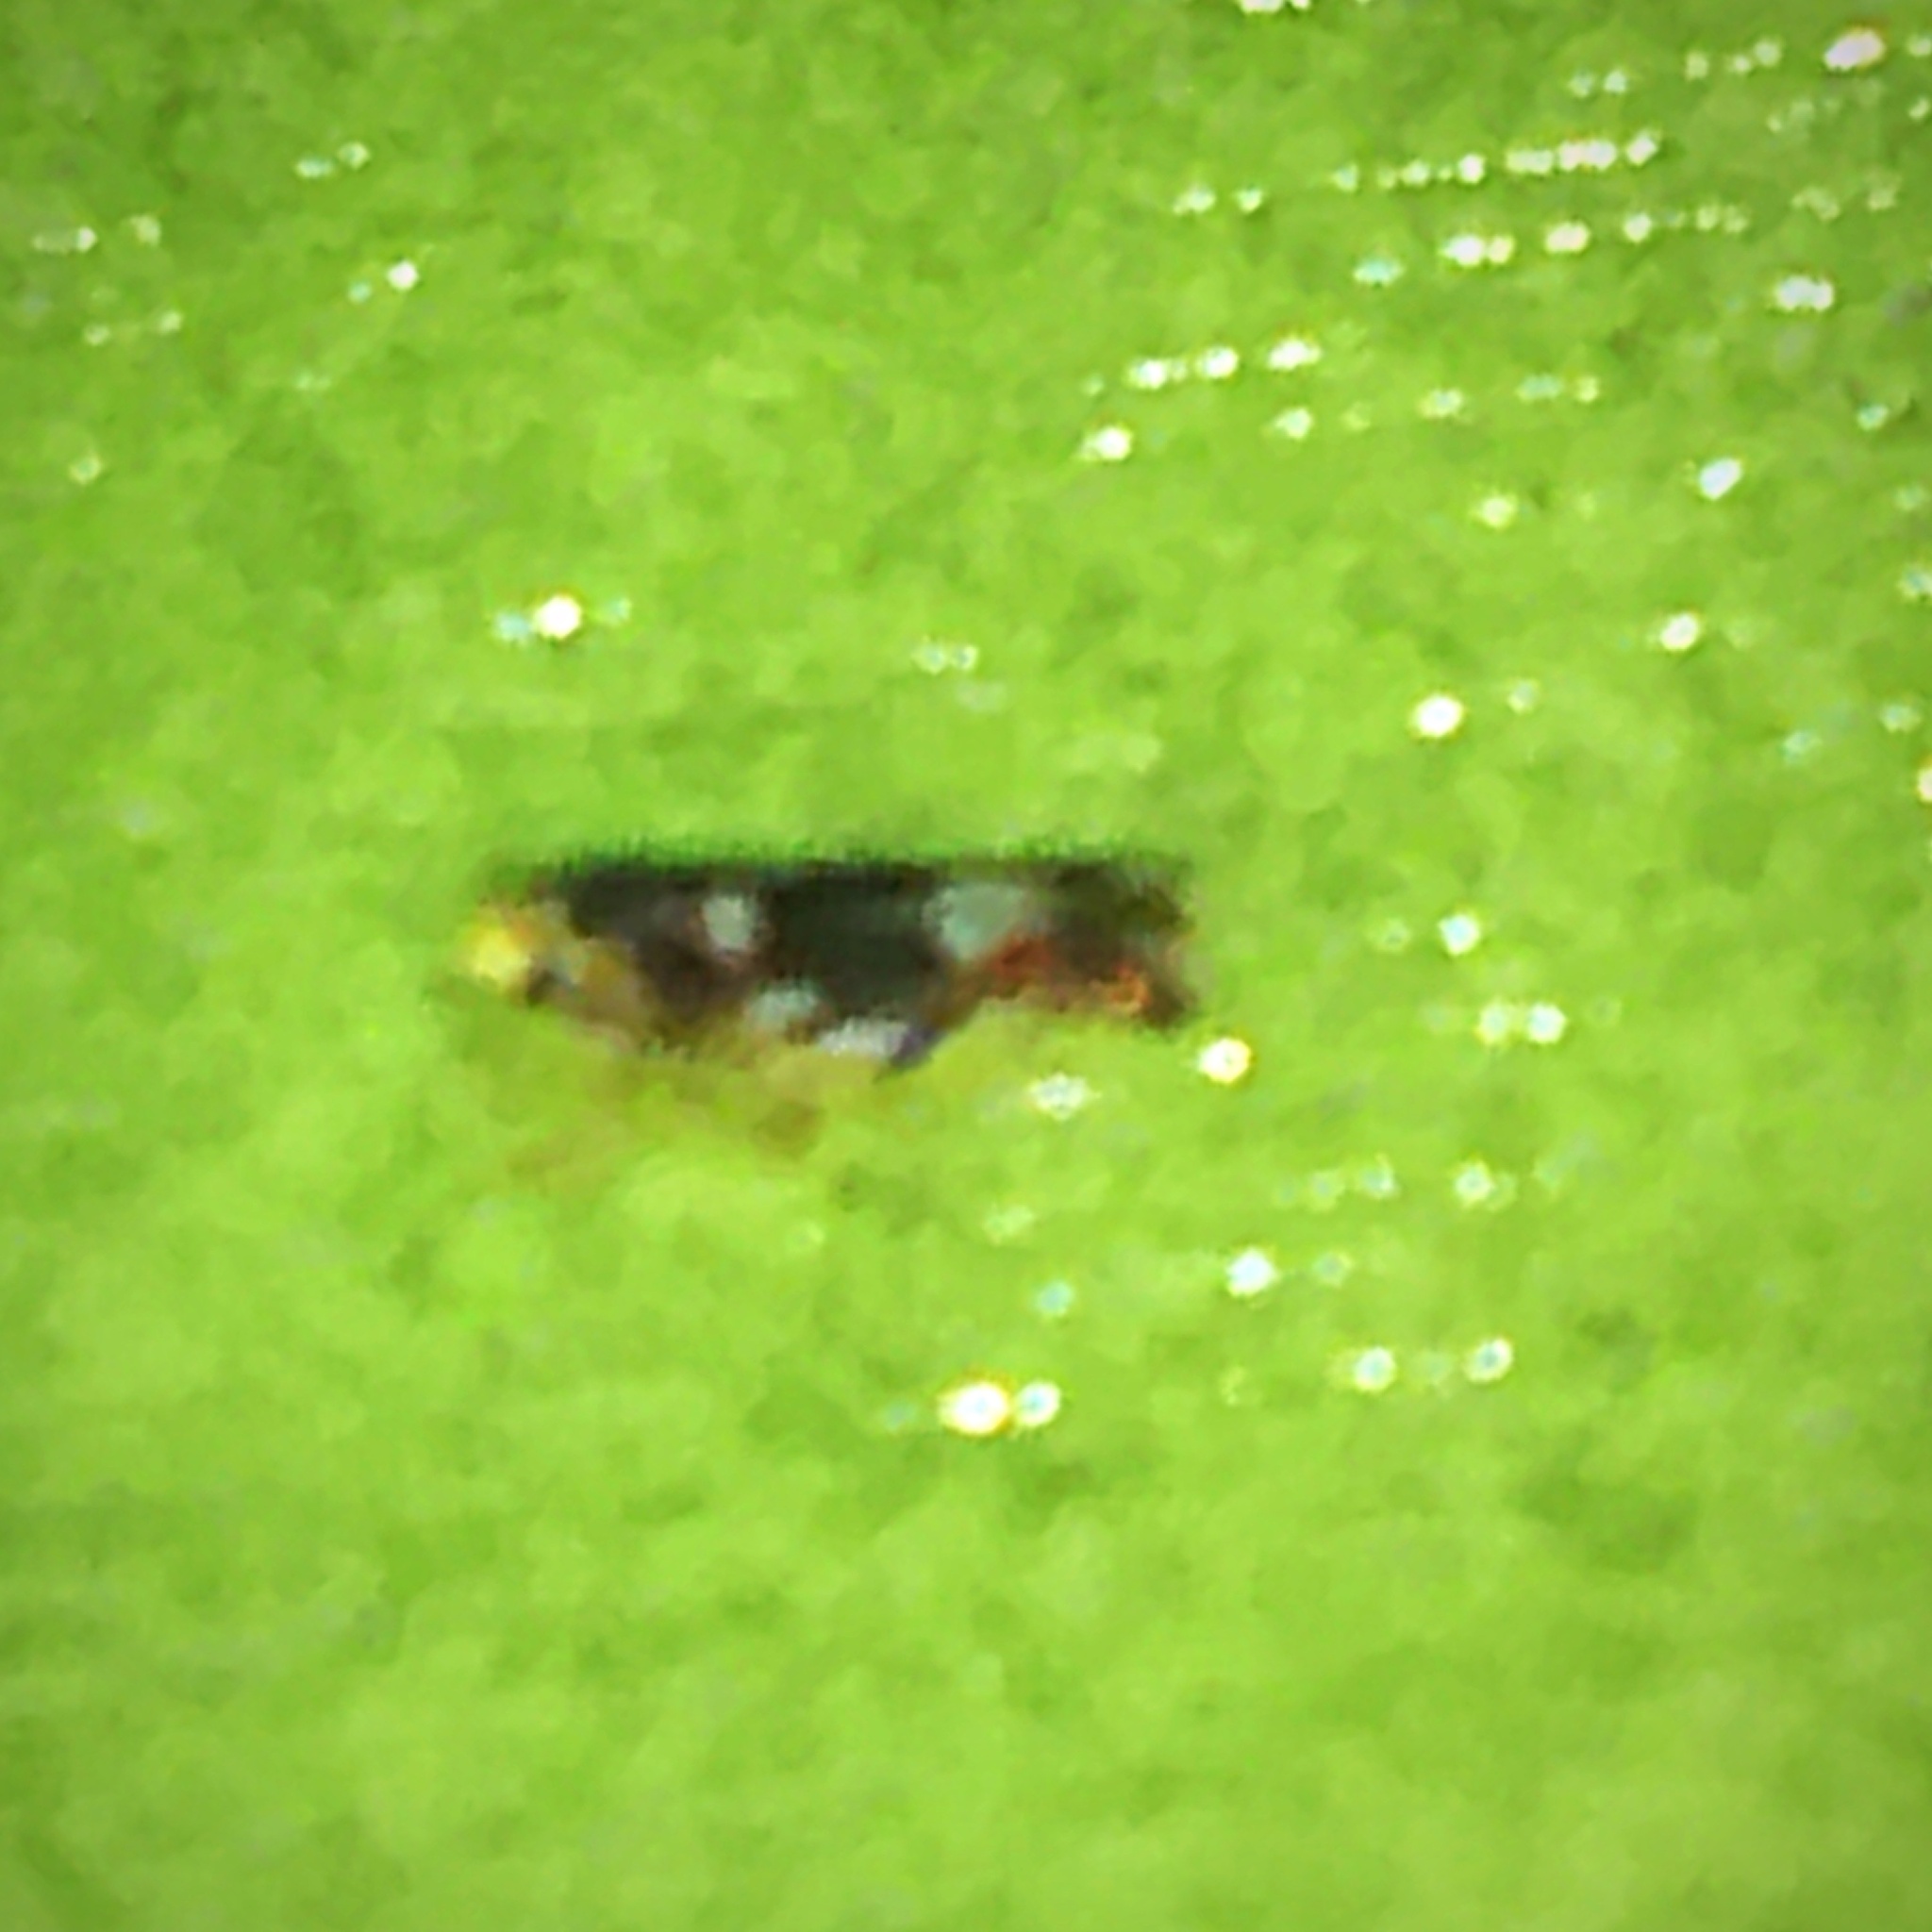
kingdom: Animalia
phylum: Arthropoda
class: Insecta
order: Hemiptera
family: Cicadellidae
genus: Erythroneura
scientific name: Erythroneura elegans
